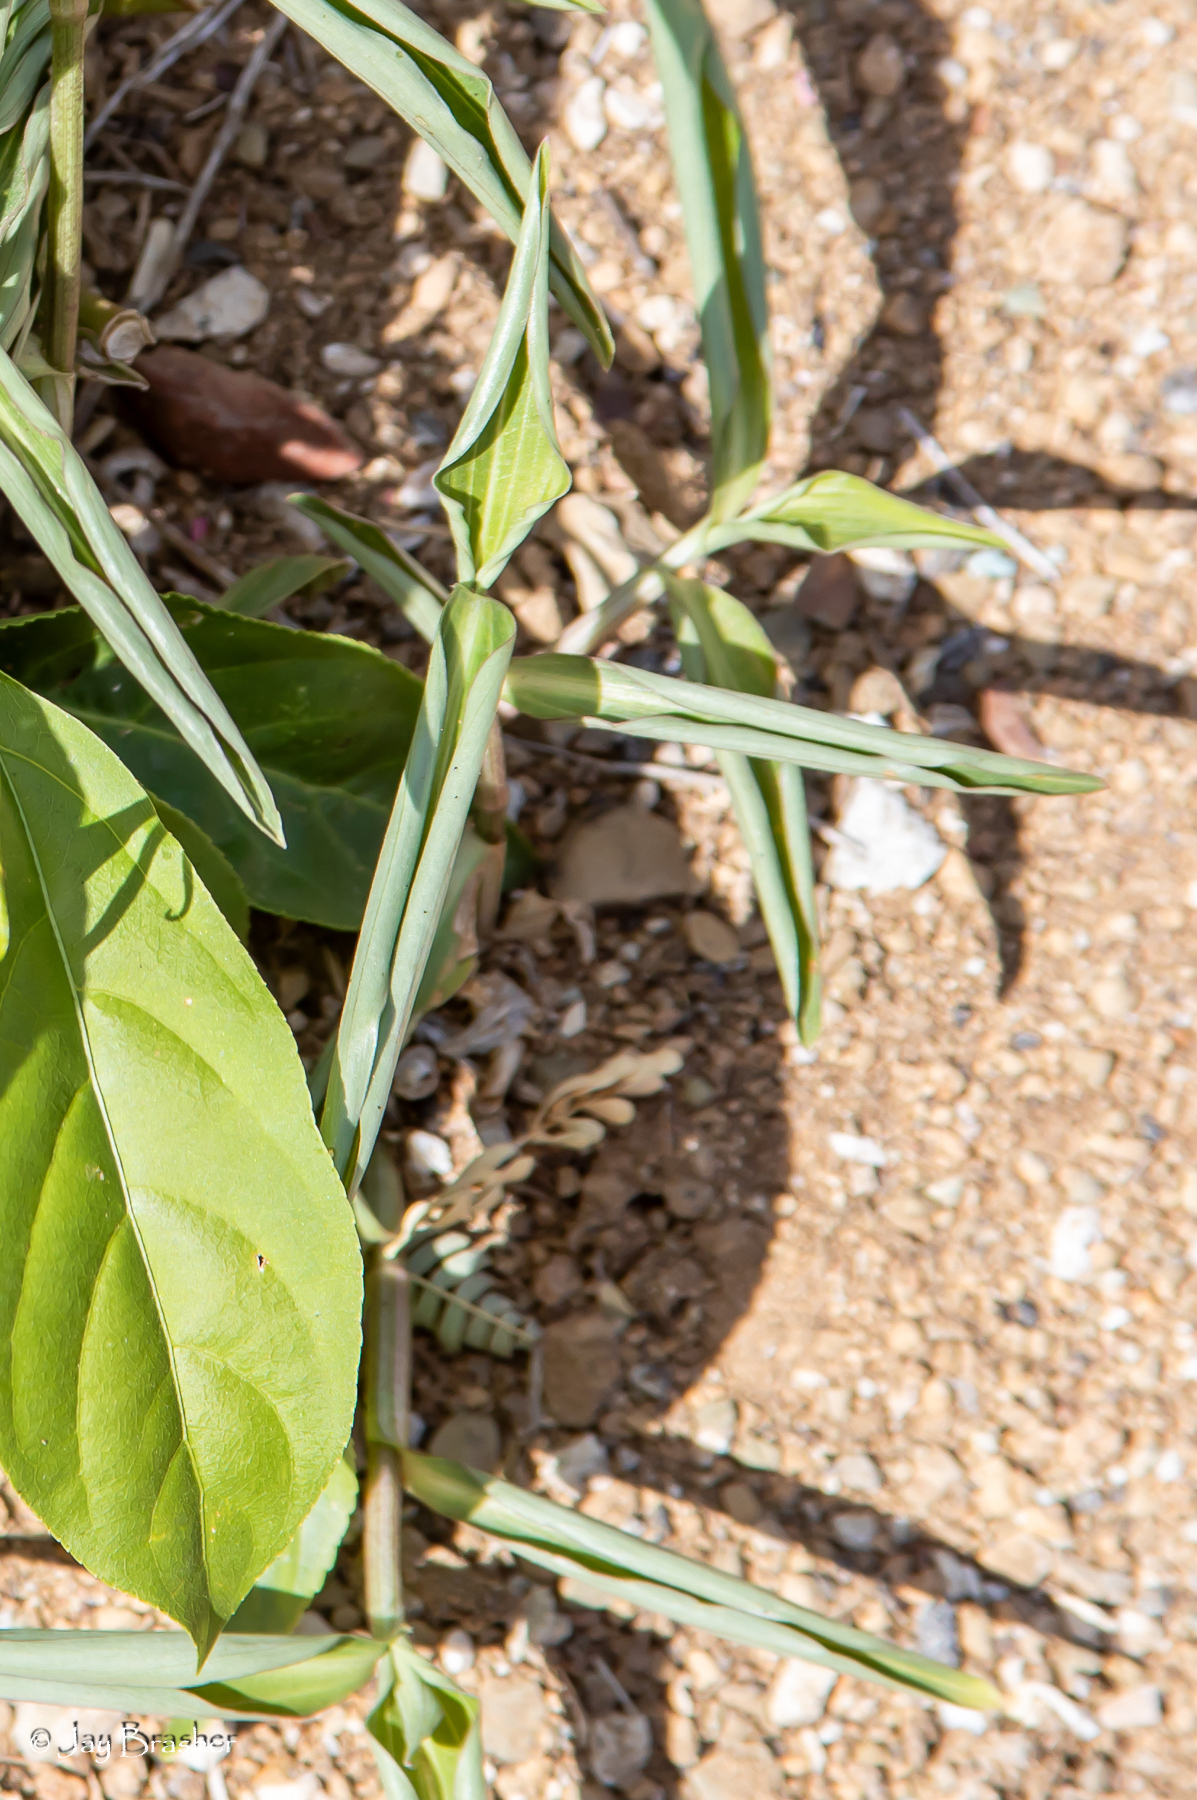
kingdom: Plantae
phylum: Tracheophyta
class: Liliopsida
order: Commelinales
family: Commelinaceae
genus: Commelina
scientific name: Commelina erecta
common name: Blousel blommetjie
